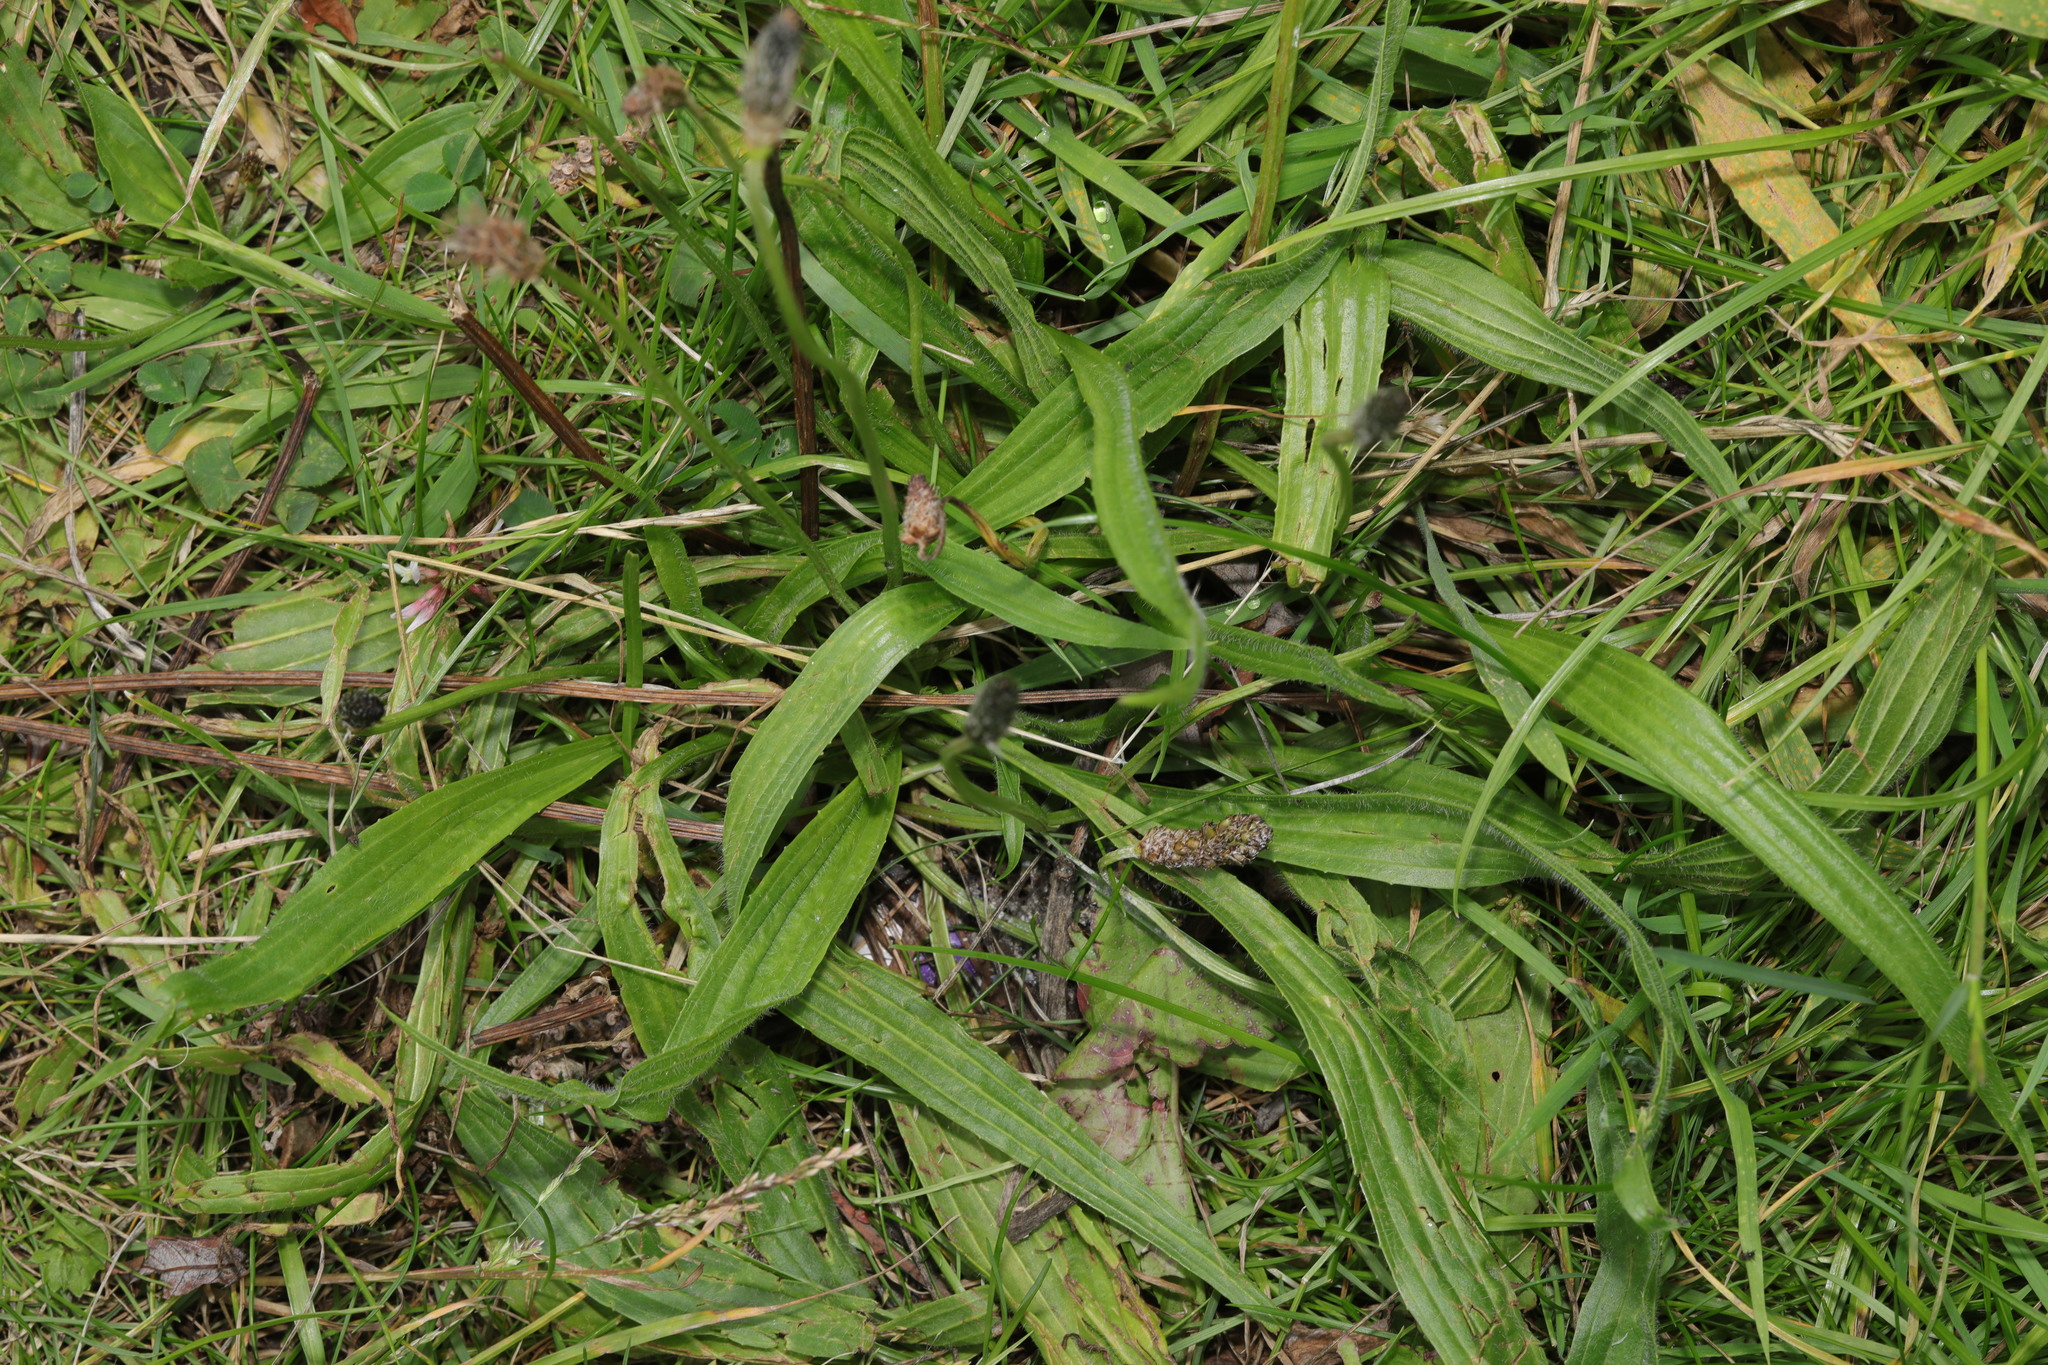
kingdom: Plantae
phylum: Tracheophyta
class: Magnoliopsida
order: Lamiales
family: Plantaginaceae
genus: Plantago
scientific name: Plantago lanceolata
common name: Ribwort plantain
